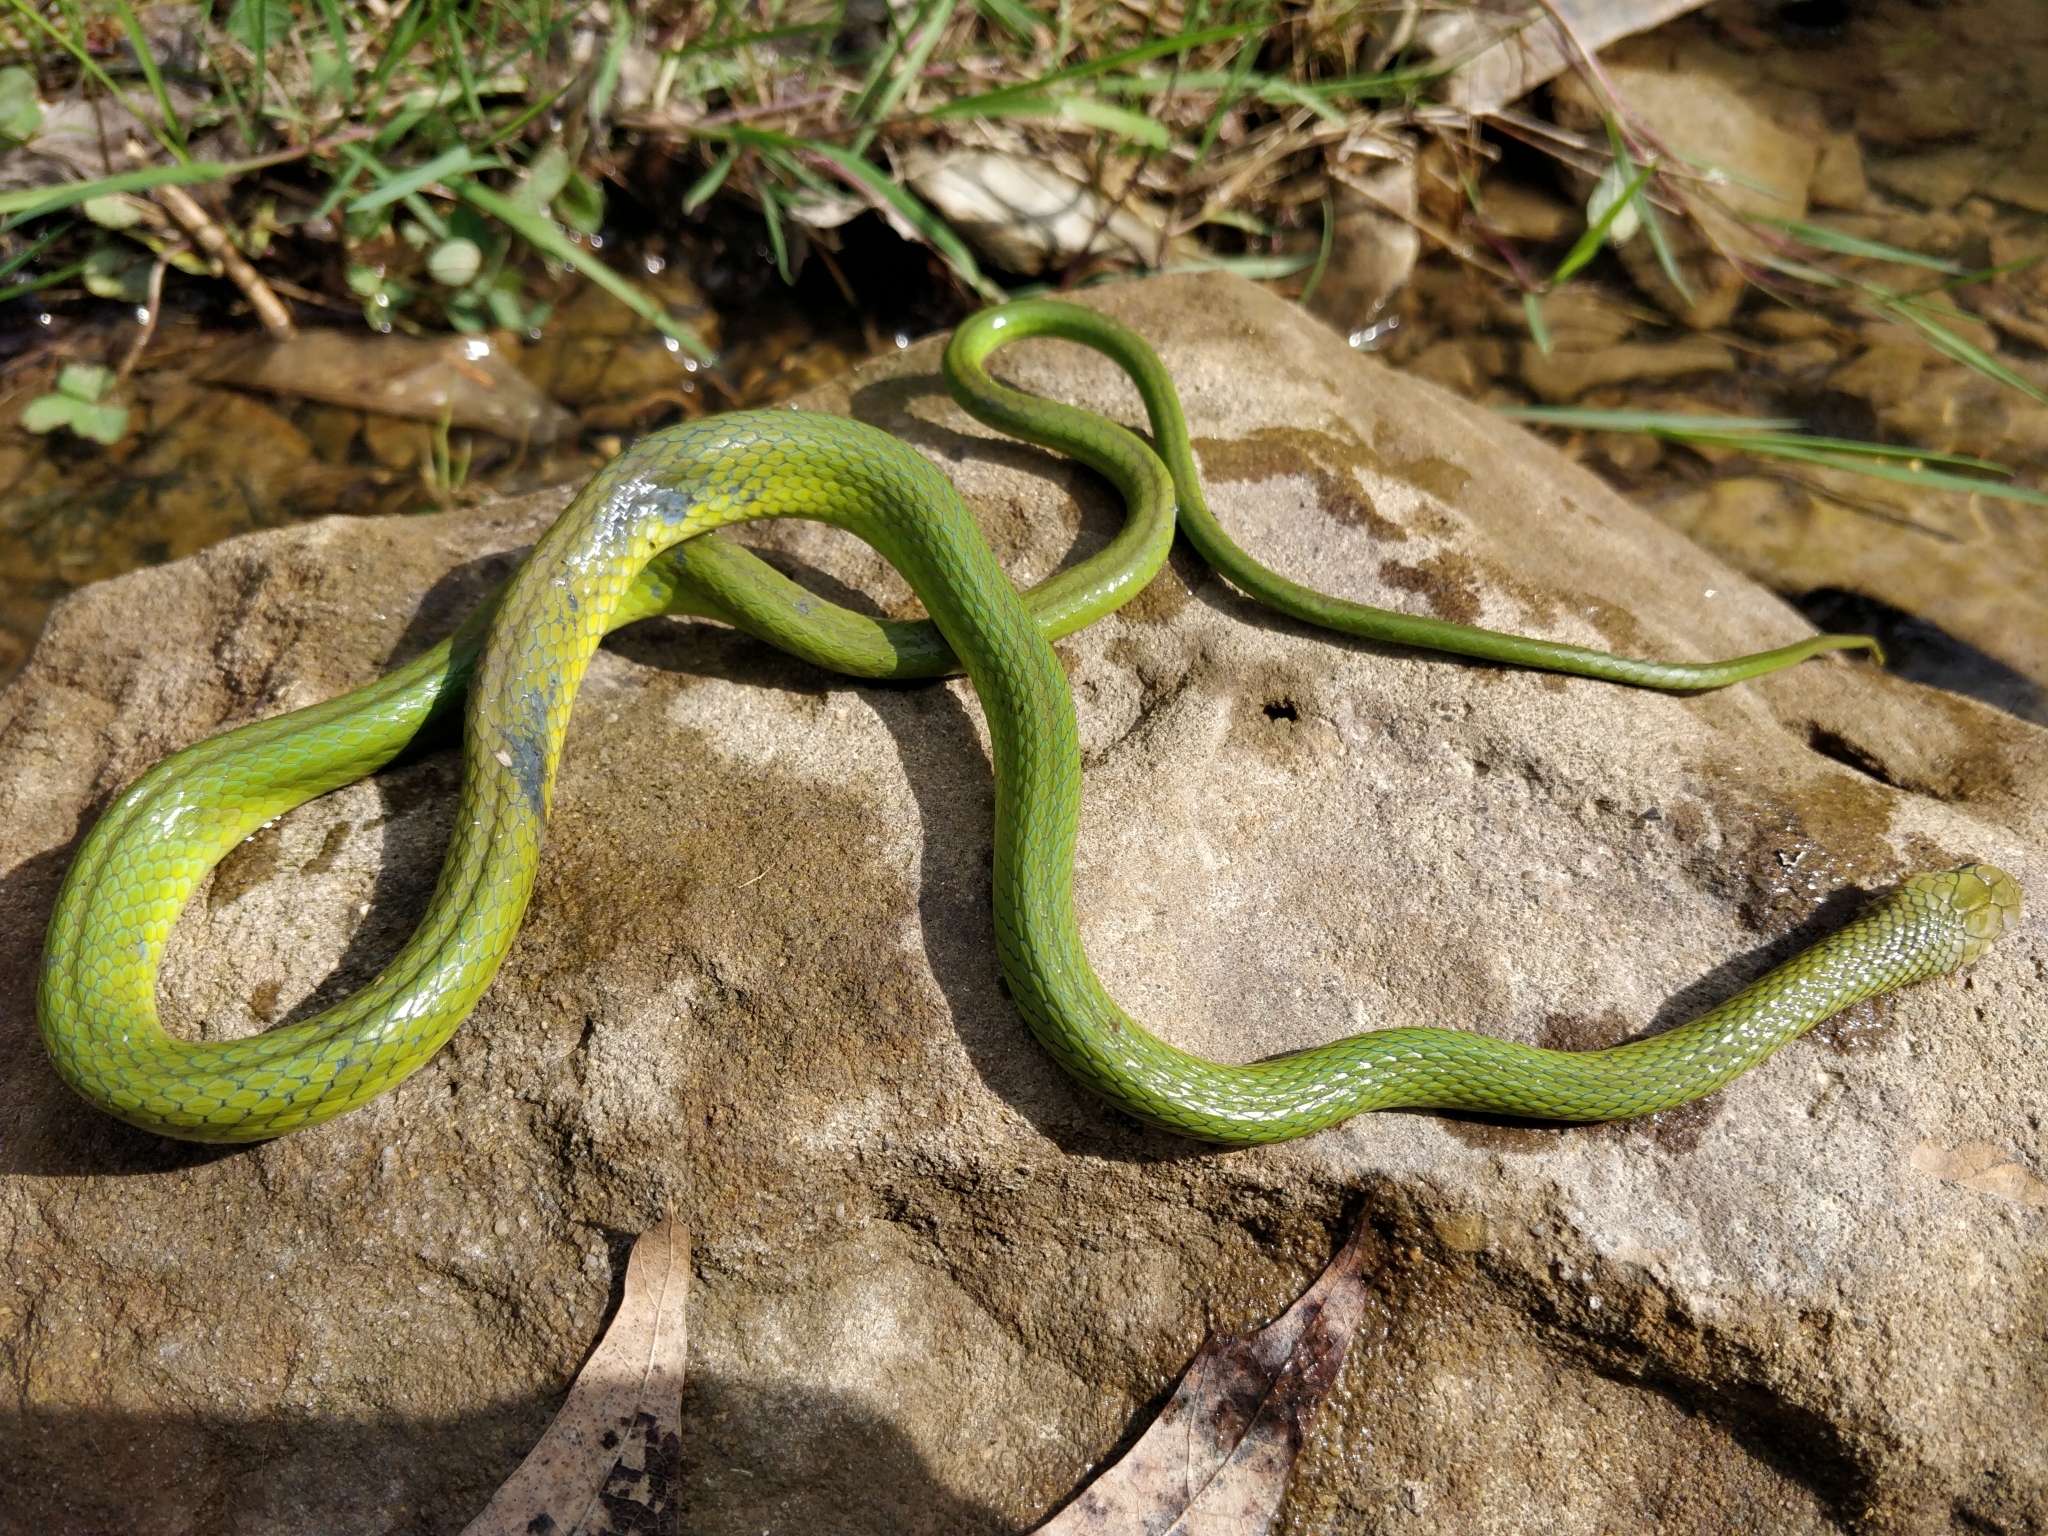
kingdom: Animalia
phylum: Chordata
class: Squamata
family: Colubridae
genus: Opheodrys
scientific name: Opheodrys aestivus
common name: Rough greensnake
